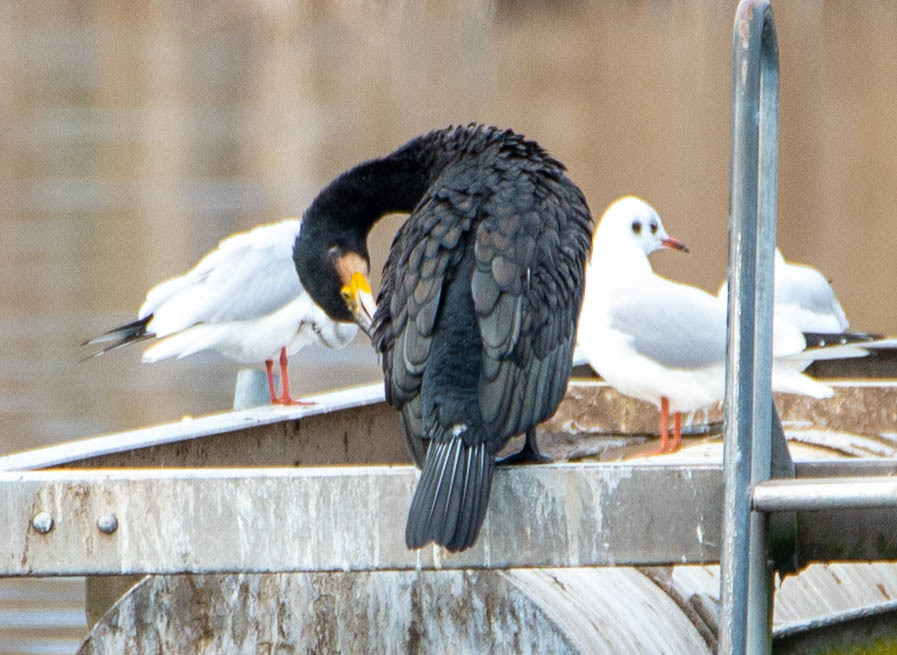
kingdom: Animalia
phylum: Chordata
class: Aves
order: Suliformes
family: Phalacrocoracidae
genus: Phalacrocorax
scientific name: Phalacrocorax carbo
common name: Great cormorant
